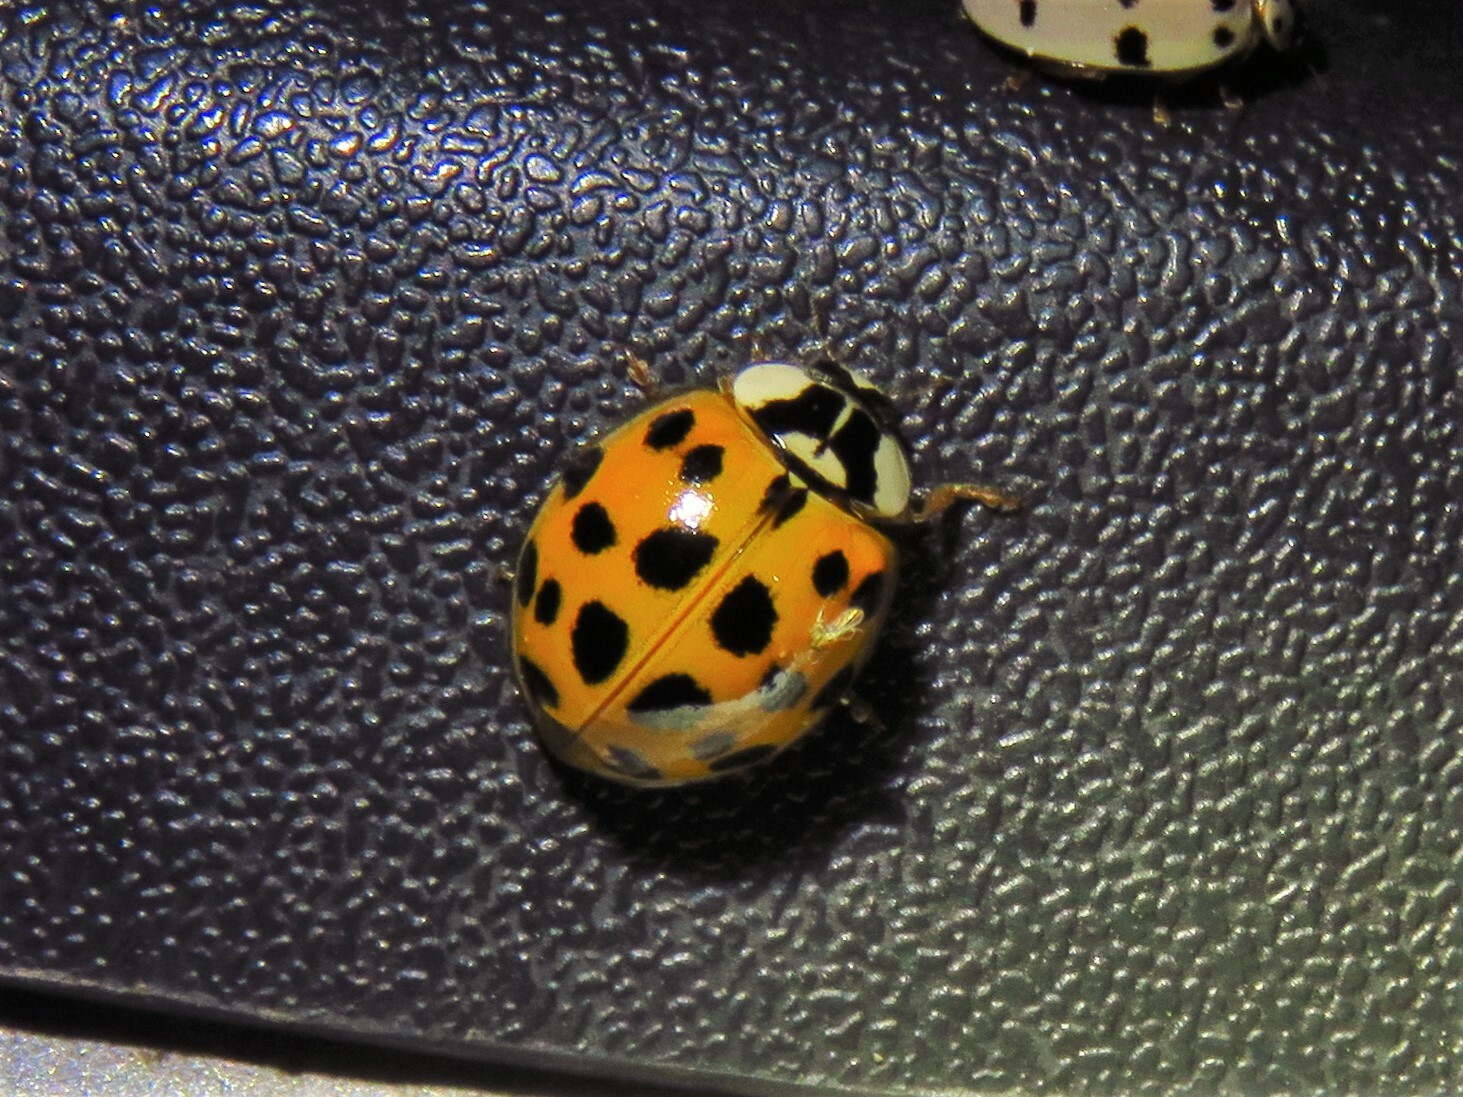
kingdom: Animalia
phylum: Arthropoda
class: Insecta
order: Coleoptera
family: Coccinellidae
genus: Harmonia
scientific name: Harmonia axyridis
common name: Harlequin ladybird
